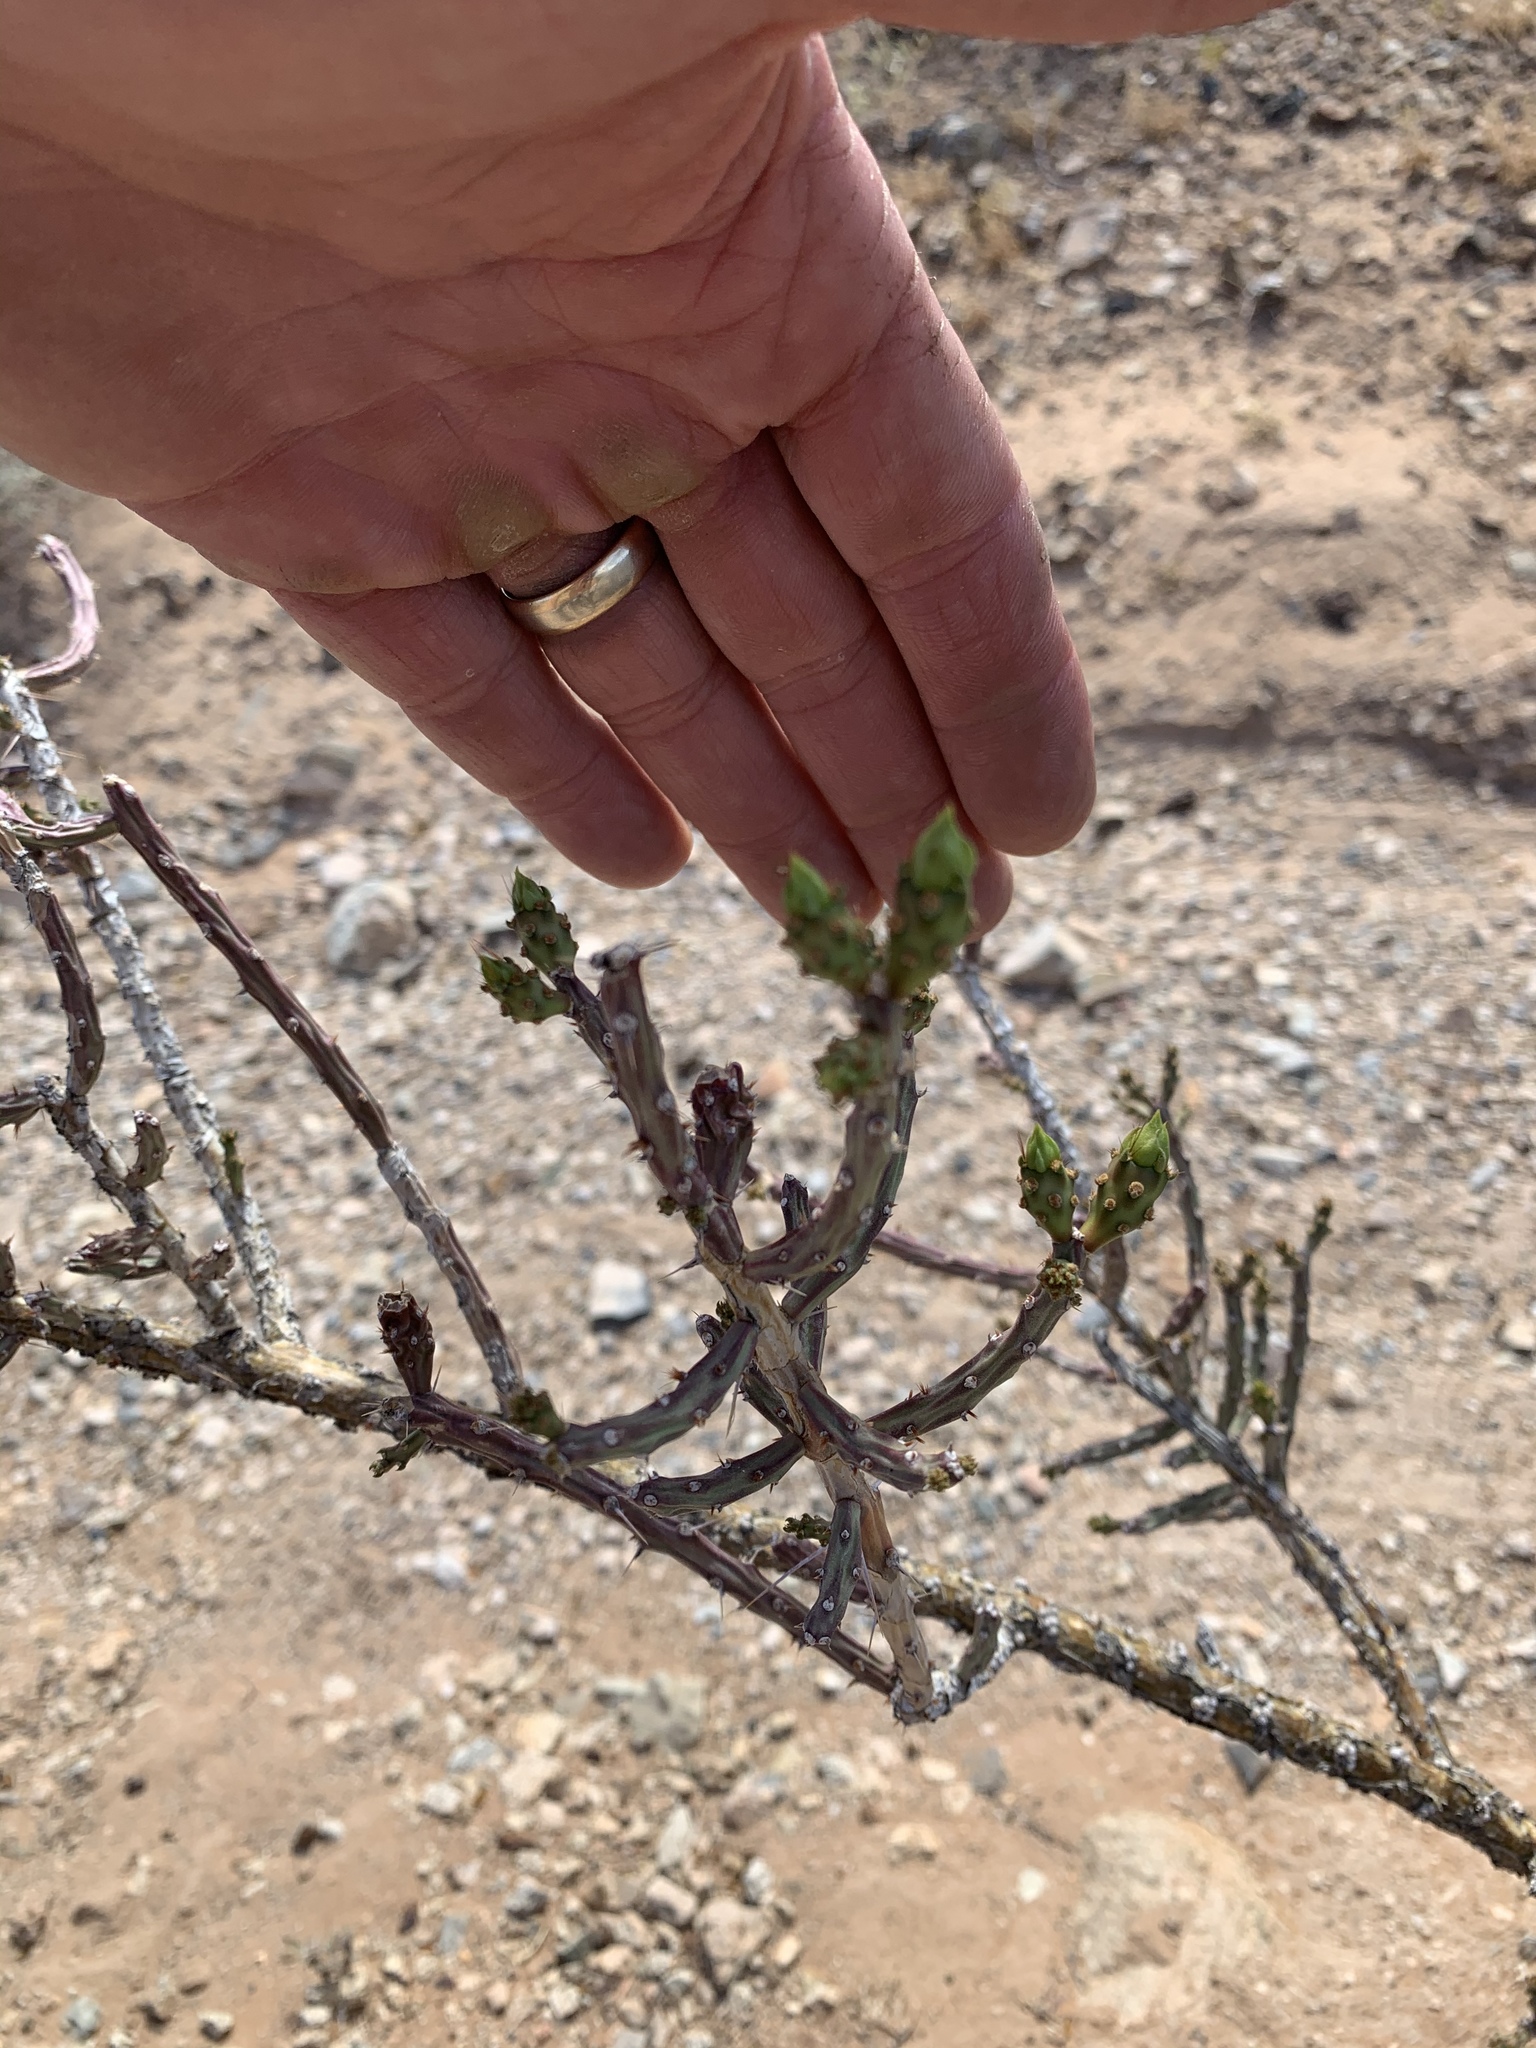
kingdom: Plantae
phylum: Tracheophyta
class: Magnoliopsida
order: Caryophyllales
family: Cactaceae
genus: Cylindropuntia
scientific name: Cylindropuntia leptocaulis
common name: Christmas cactus
